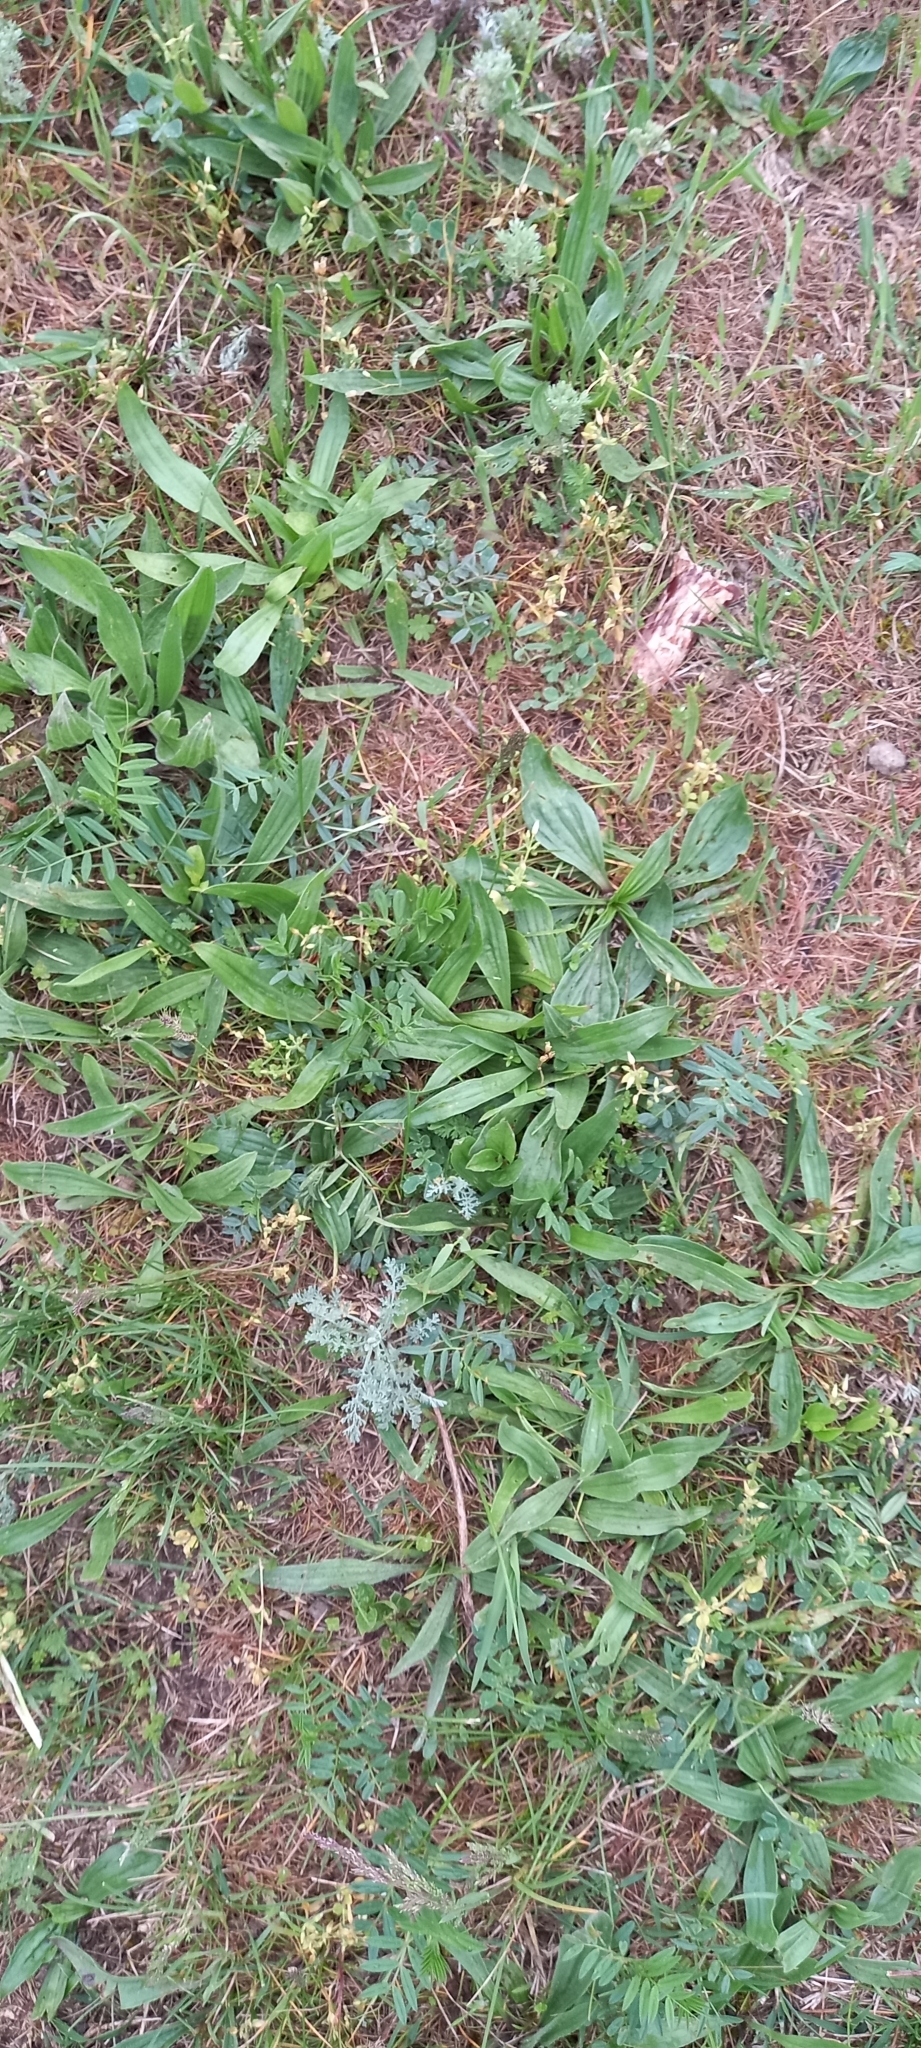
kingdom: Plantae
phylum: Tracheophyta
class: Magnoliopsida
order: Lamiales
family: Plantaginaceae
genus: Plantago
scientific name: Plantago lanceolata
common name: Ribwort plantain
